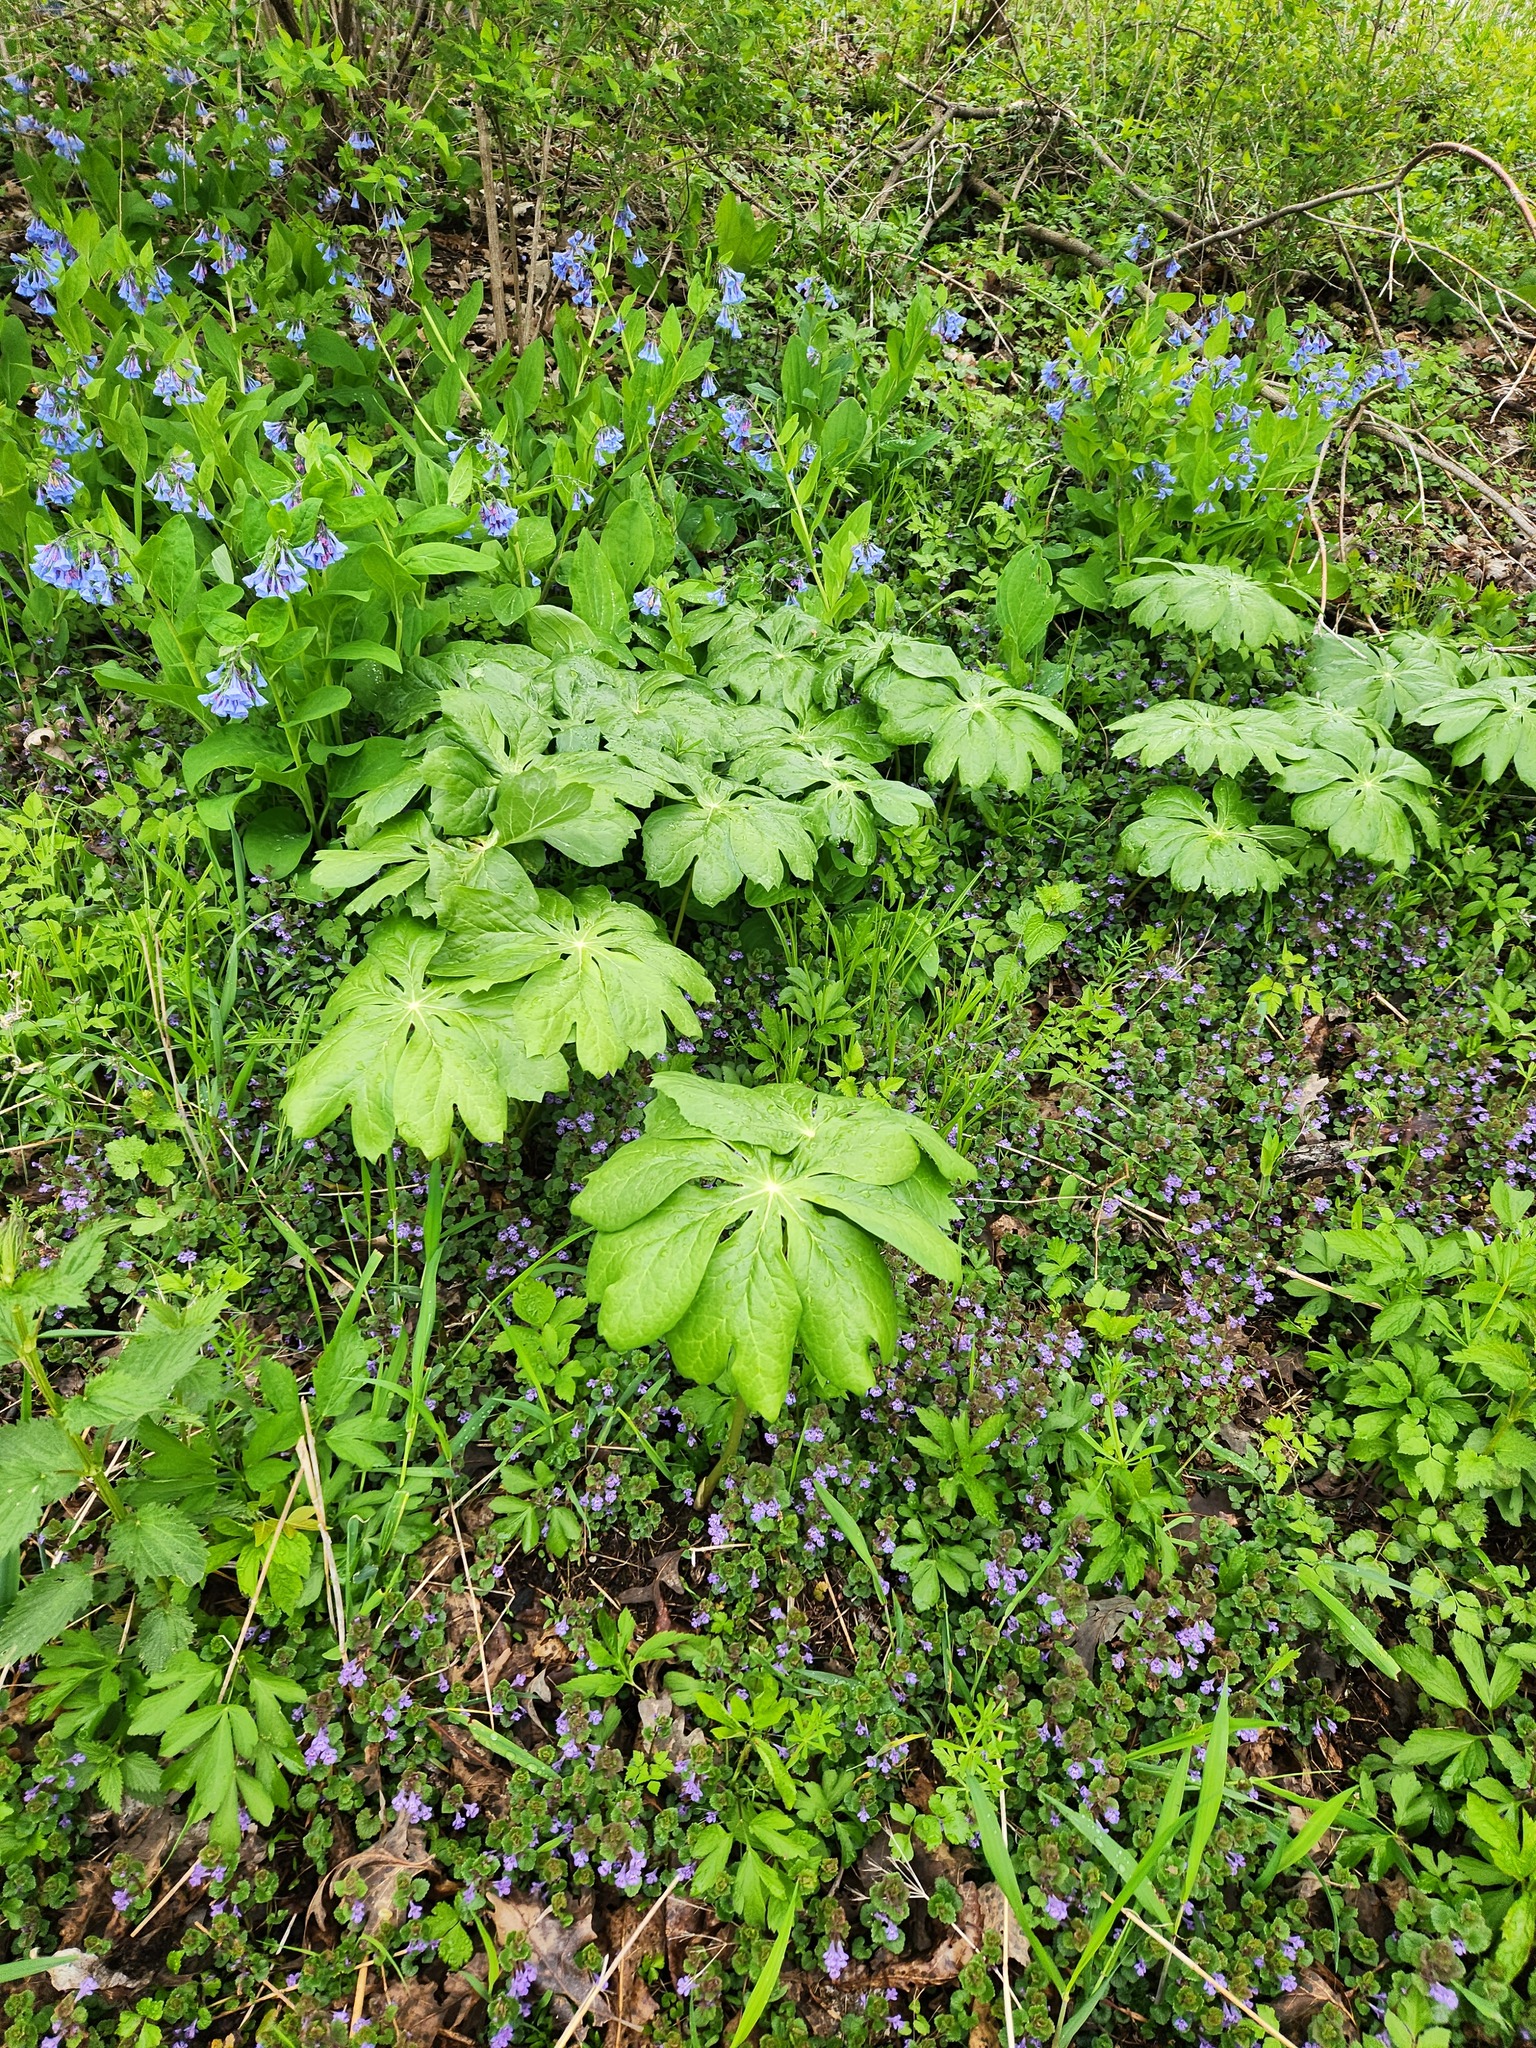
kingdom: Plantae
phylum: Tracheophyta
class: Magnoliopsida
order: Ranunculales
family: Berberidaceae
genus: Podophyllum
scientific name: Podophyllum peltatum
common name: Wild mandrake
